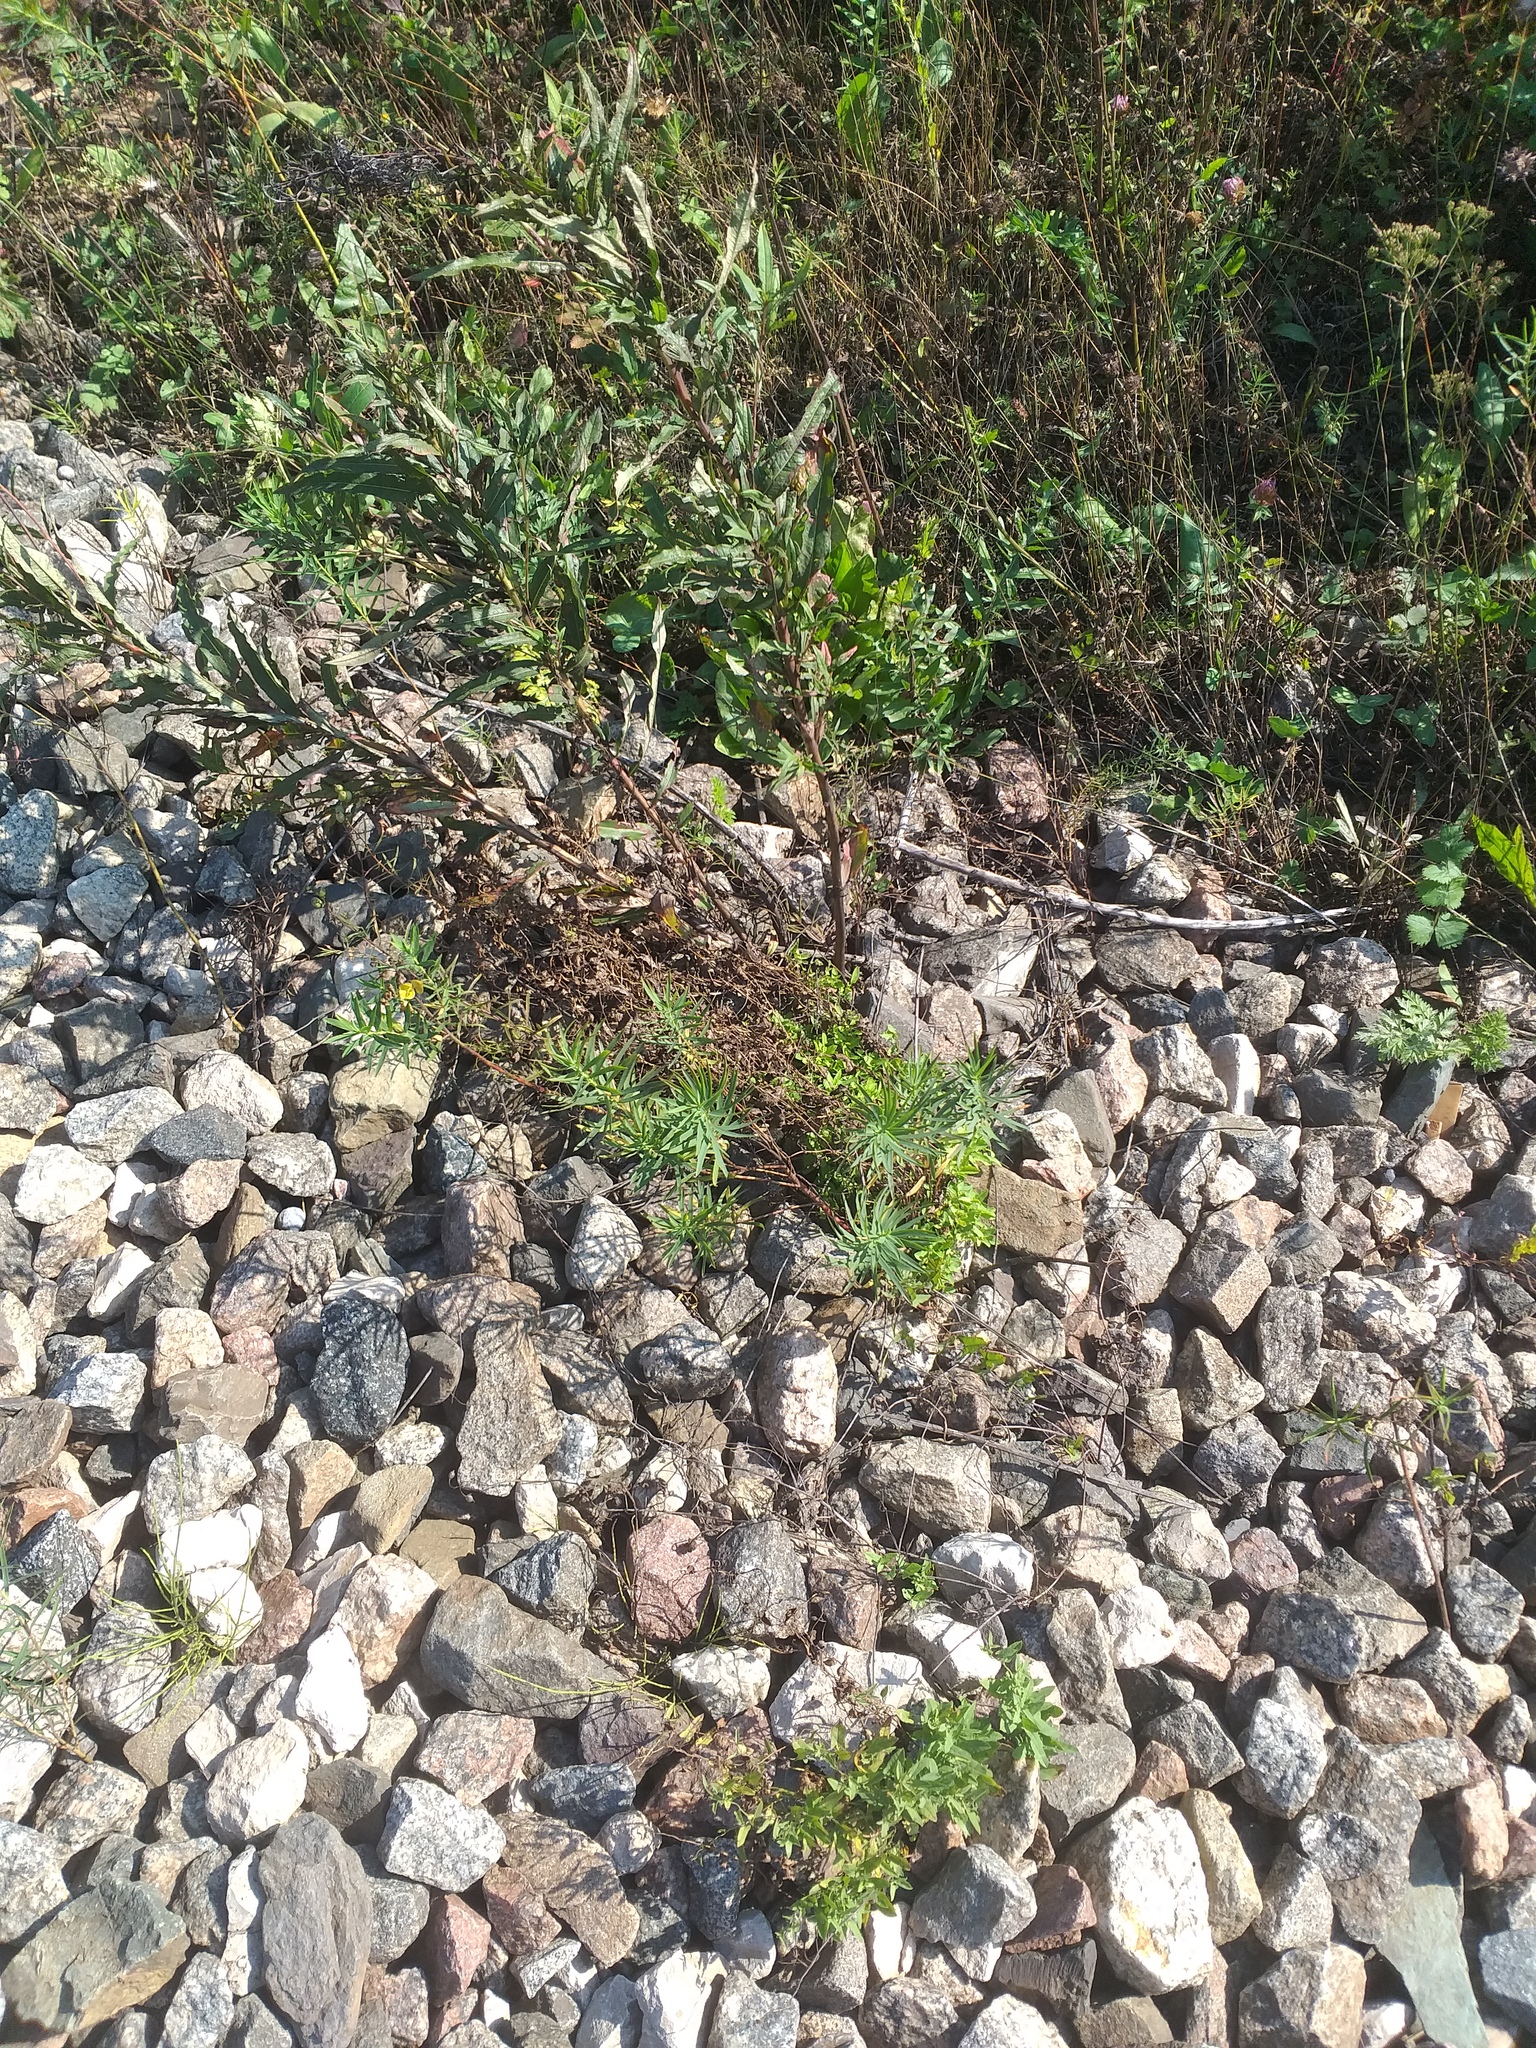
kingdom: Plantae
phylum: Tracheophyta
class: Magnoliopsida
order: Malpighiales
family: Euphorbiaceae
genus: Euphorbia
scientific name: Euphorbia virgata
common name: Leafy spurge
